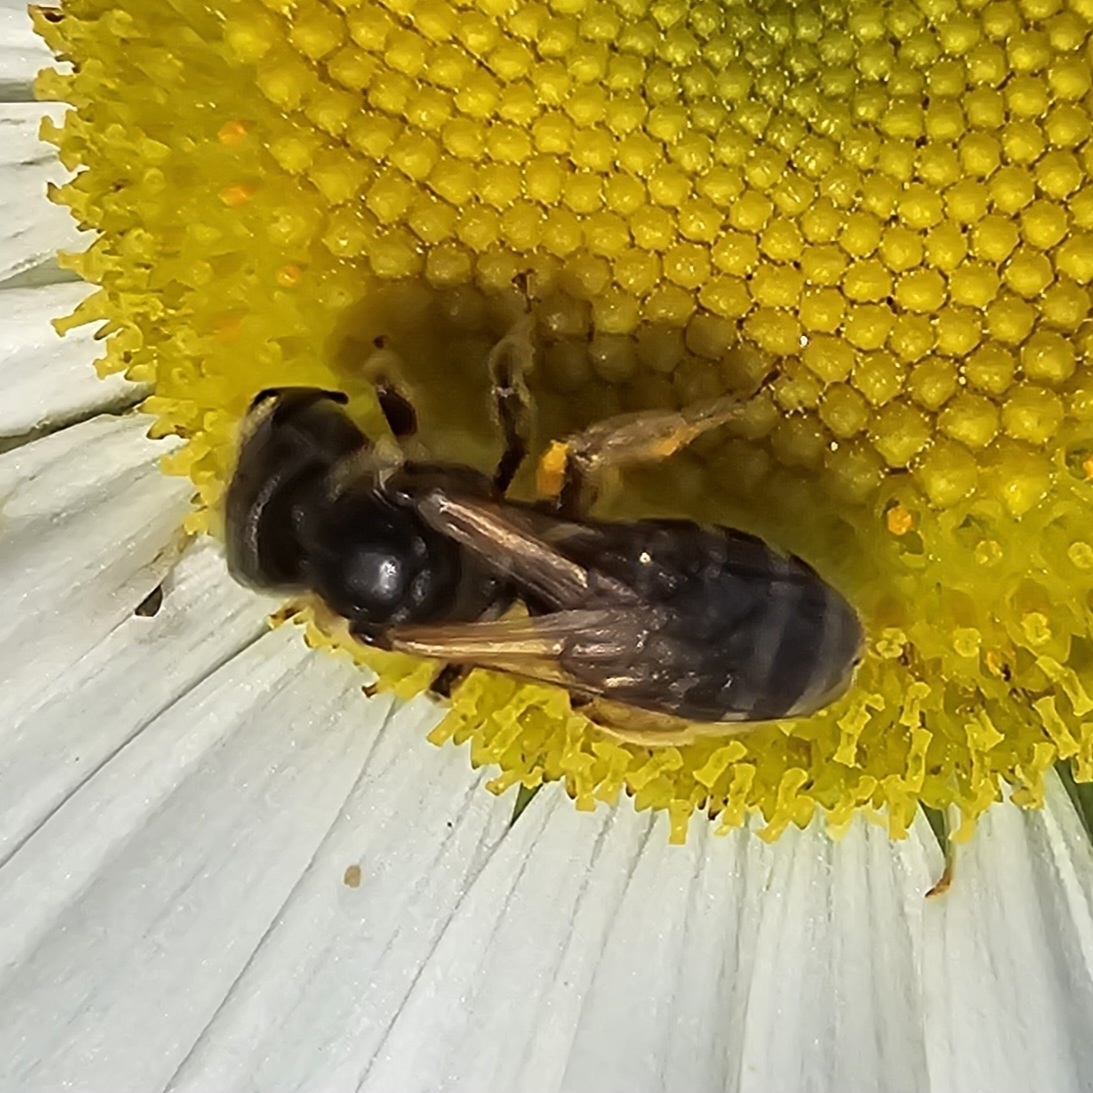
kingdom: Animalia
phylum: Arthropoda
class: Insecta
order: Hymenoptera
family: Halictidae
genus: Halictus
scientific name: Halictus ligatus
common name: Ligated furrow bee
